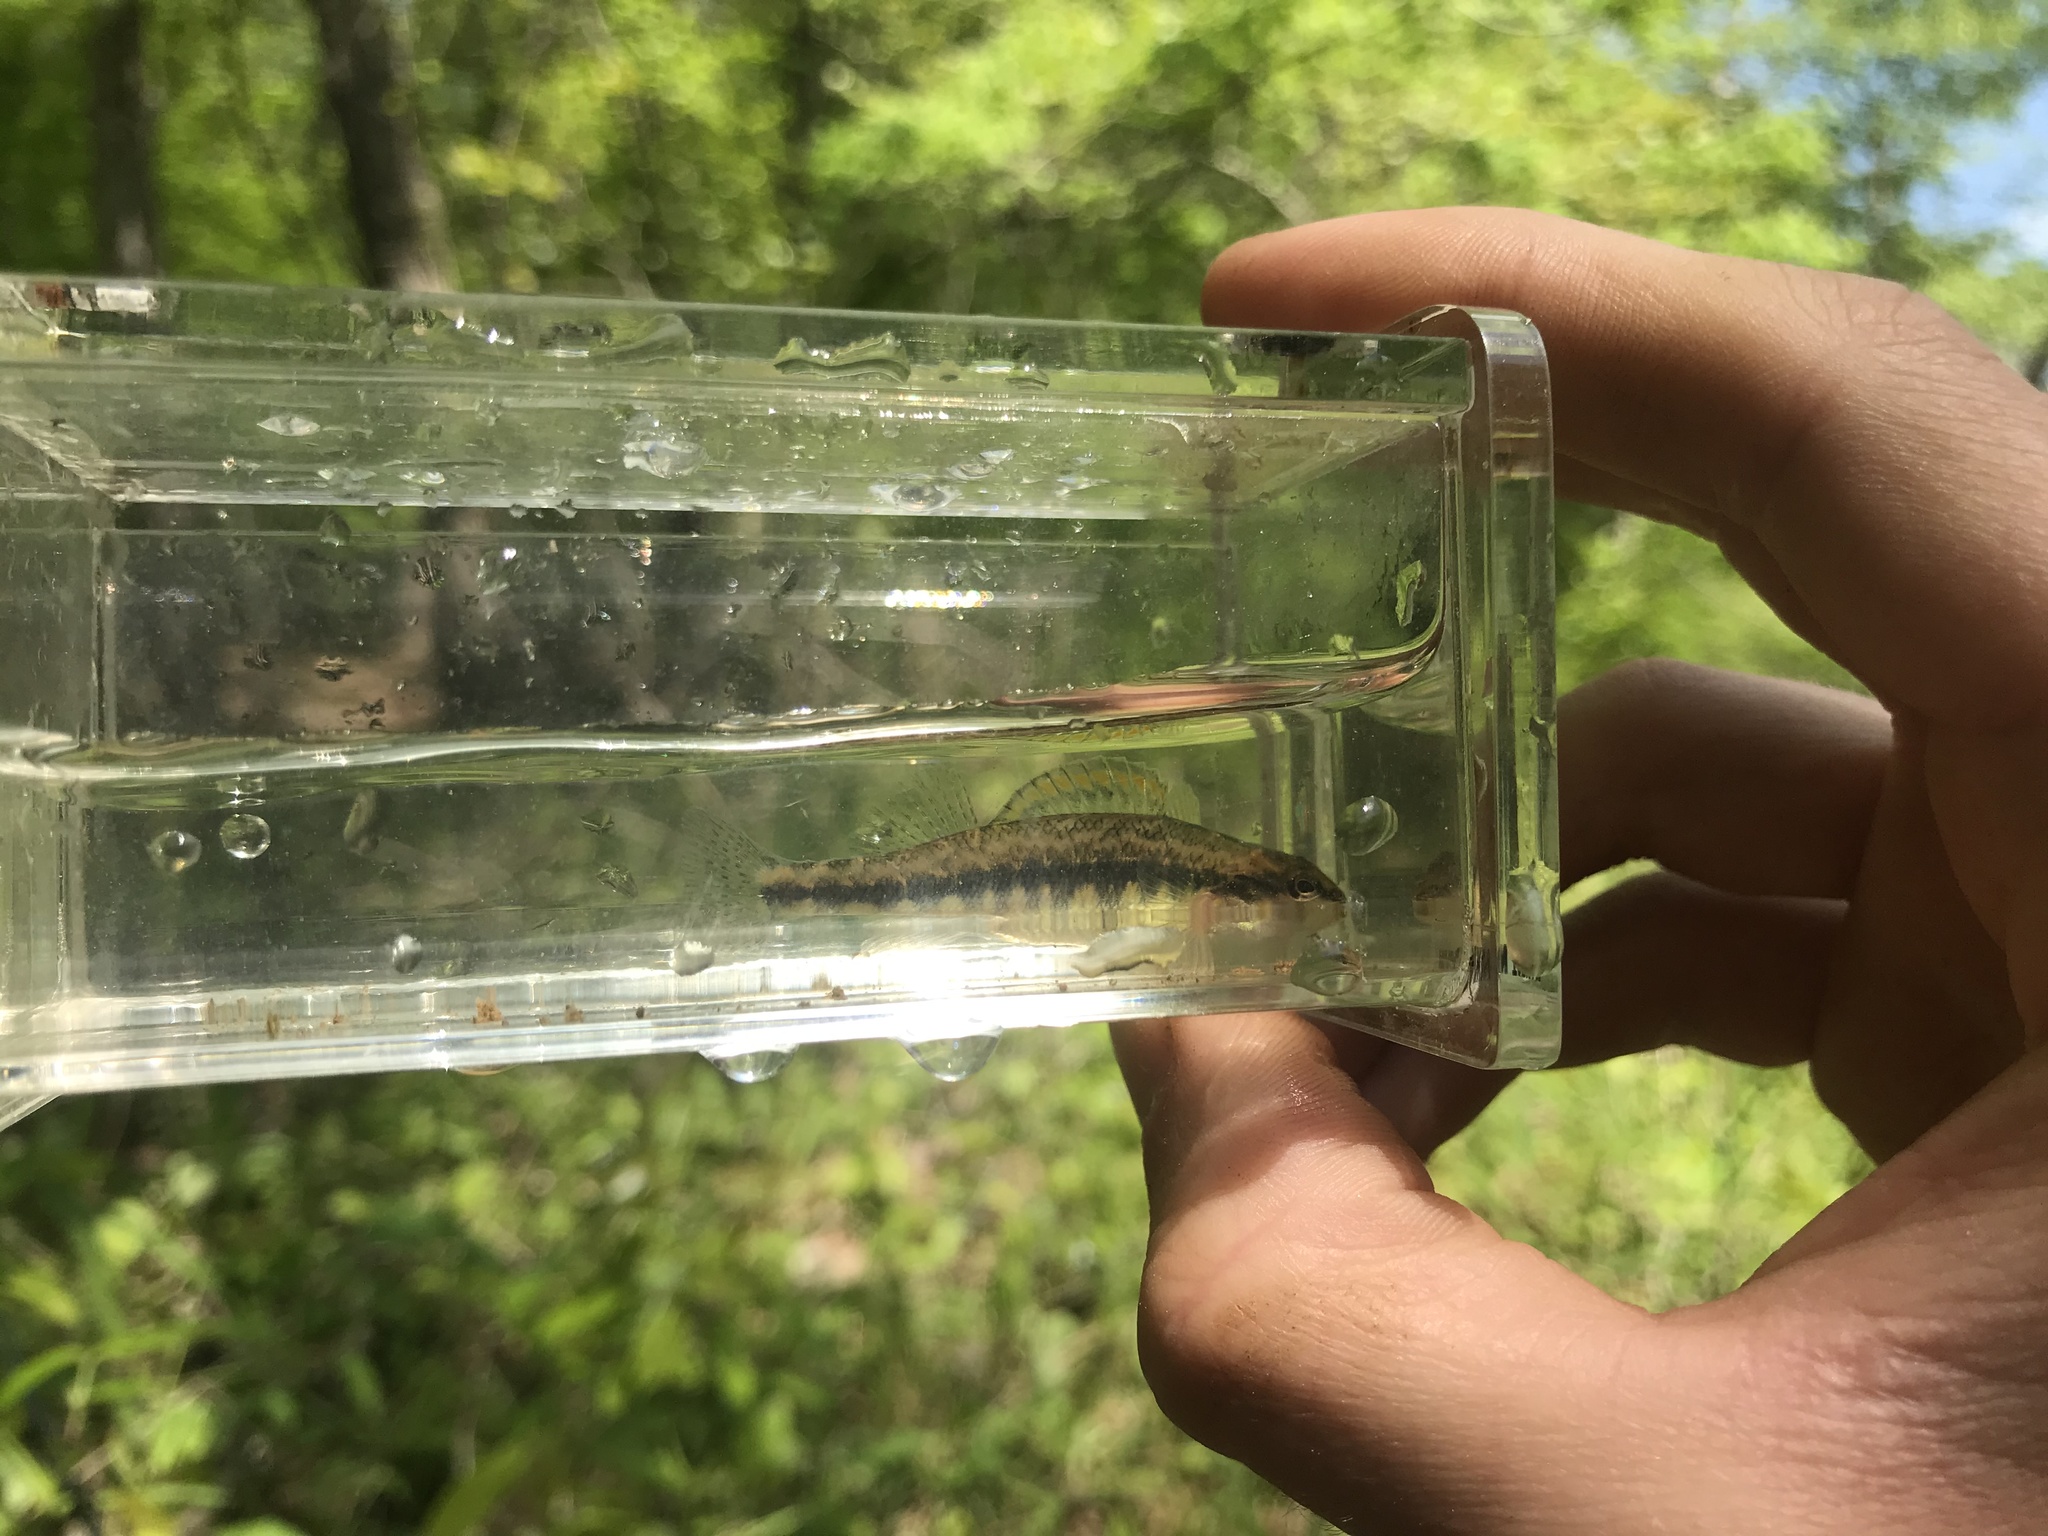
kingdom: Animalia
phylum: Chordata
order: Perciformes
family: Percidae
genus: Percina
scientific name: Percina roanoka
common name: Roanoke darter
